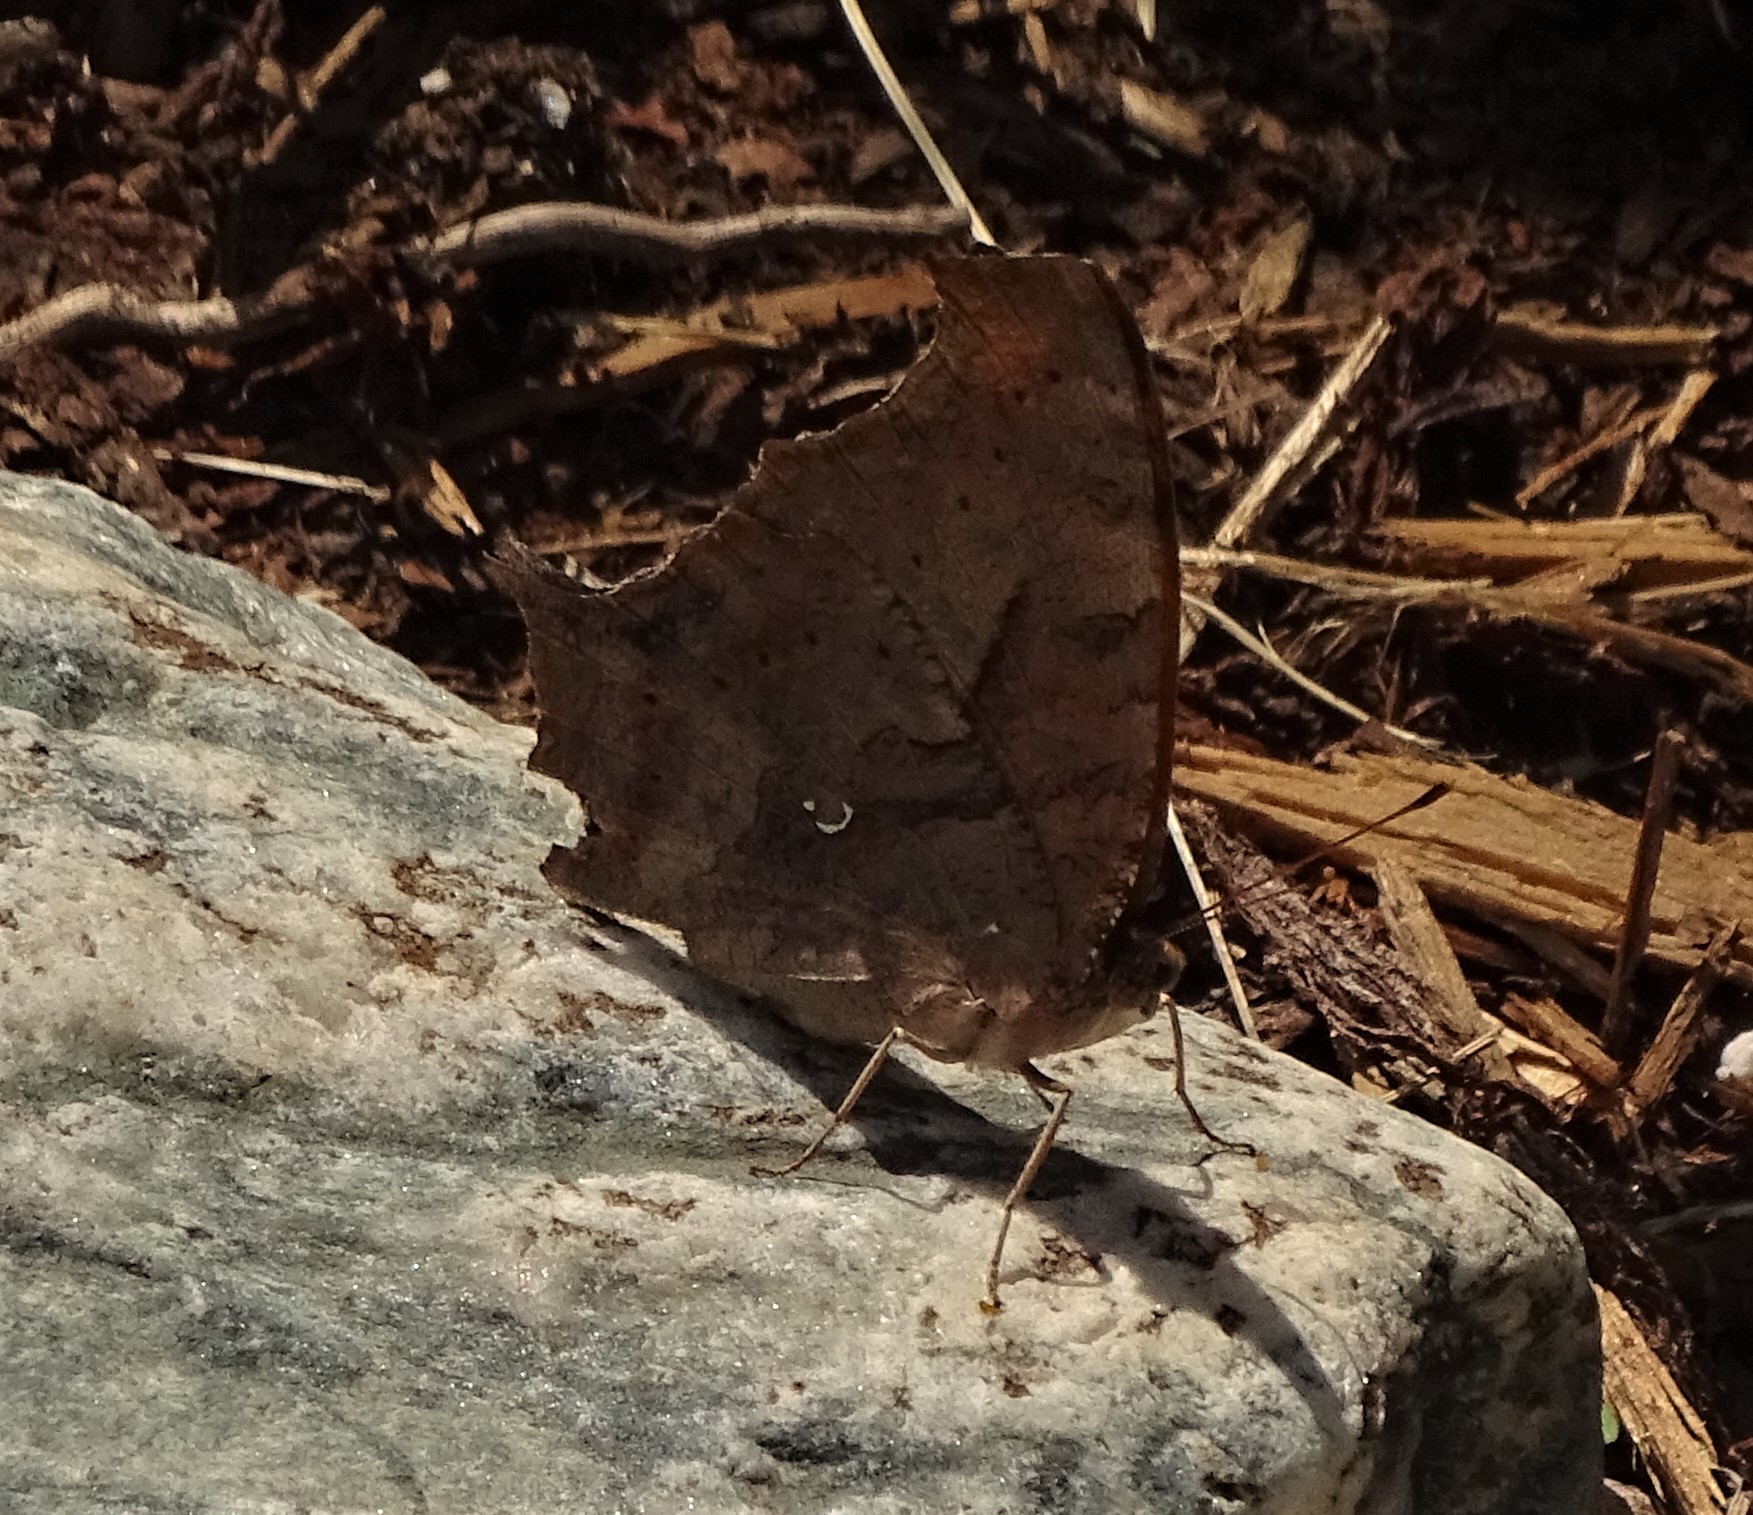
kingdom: Animalia
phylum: Arthropoda
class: Insecta
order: Lepidoptera
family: Nymphalidae
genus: Polygonia
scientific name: Polygonia interrogationis
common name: Question mark
